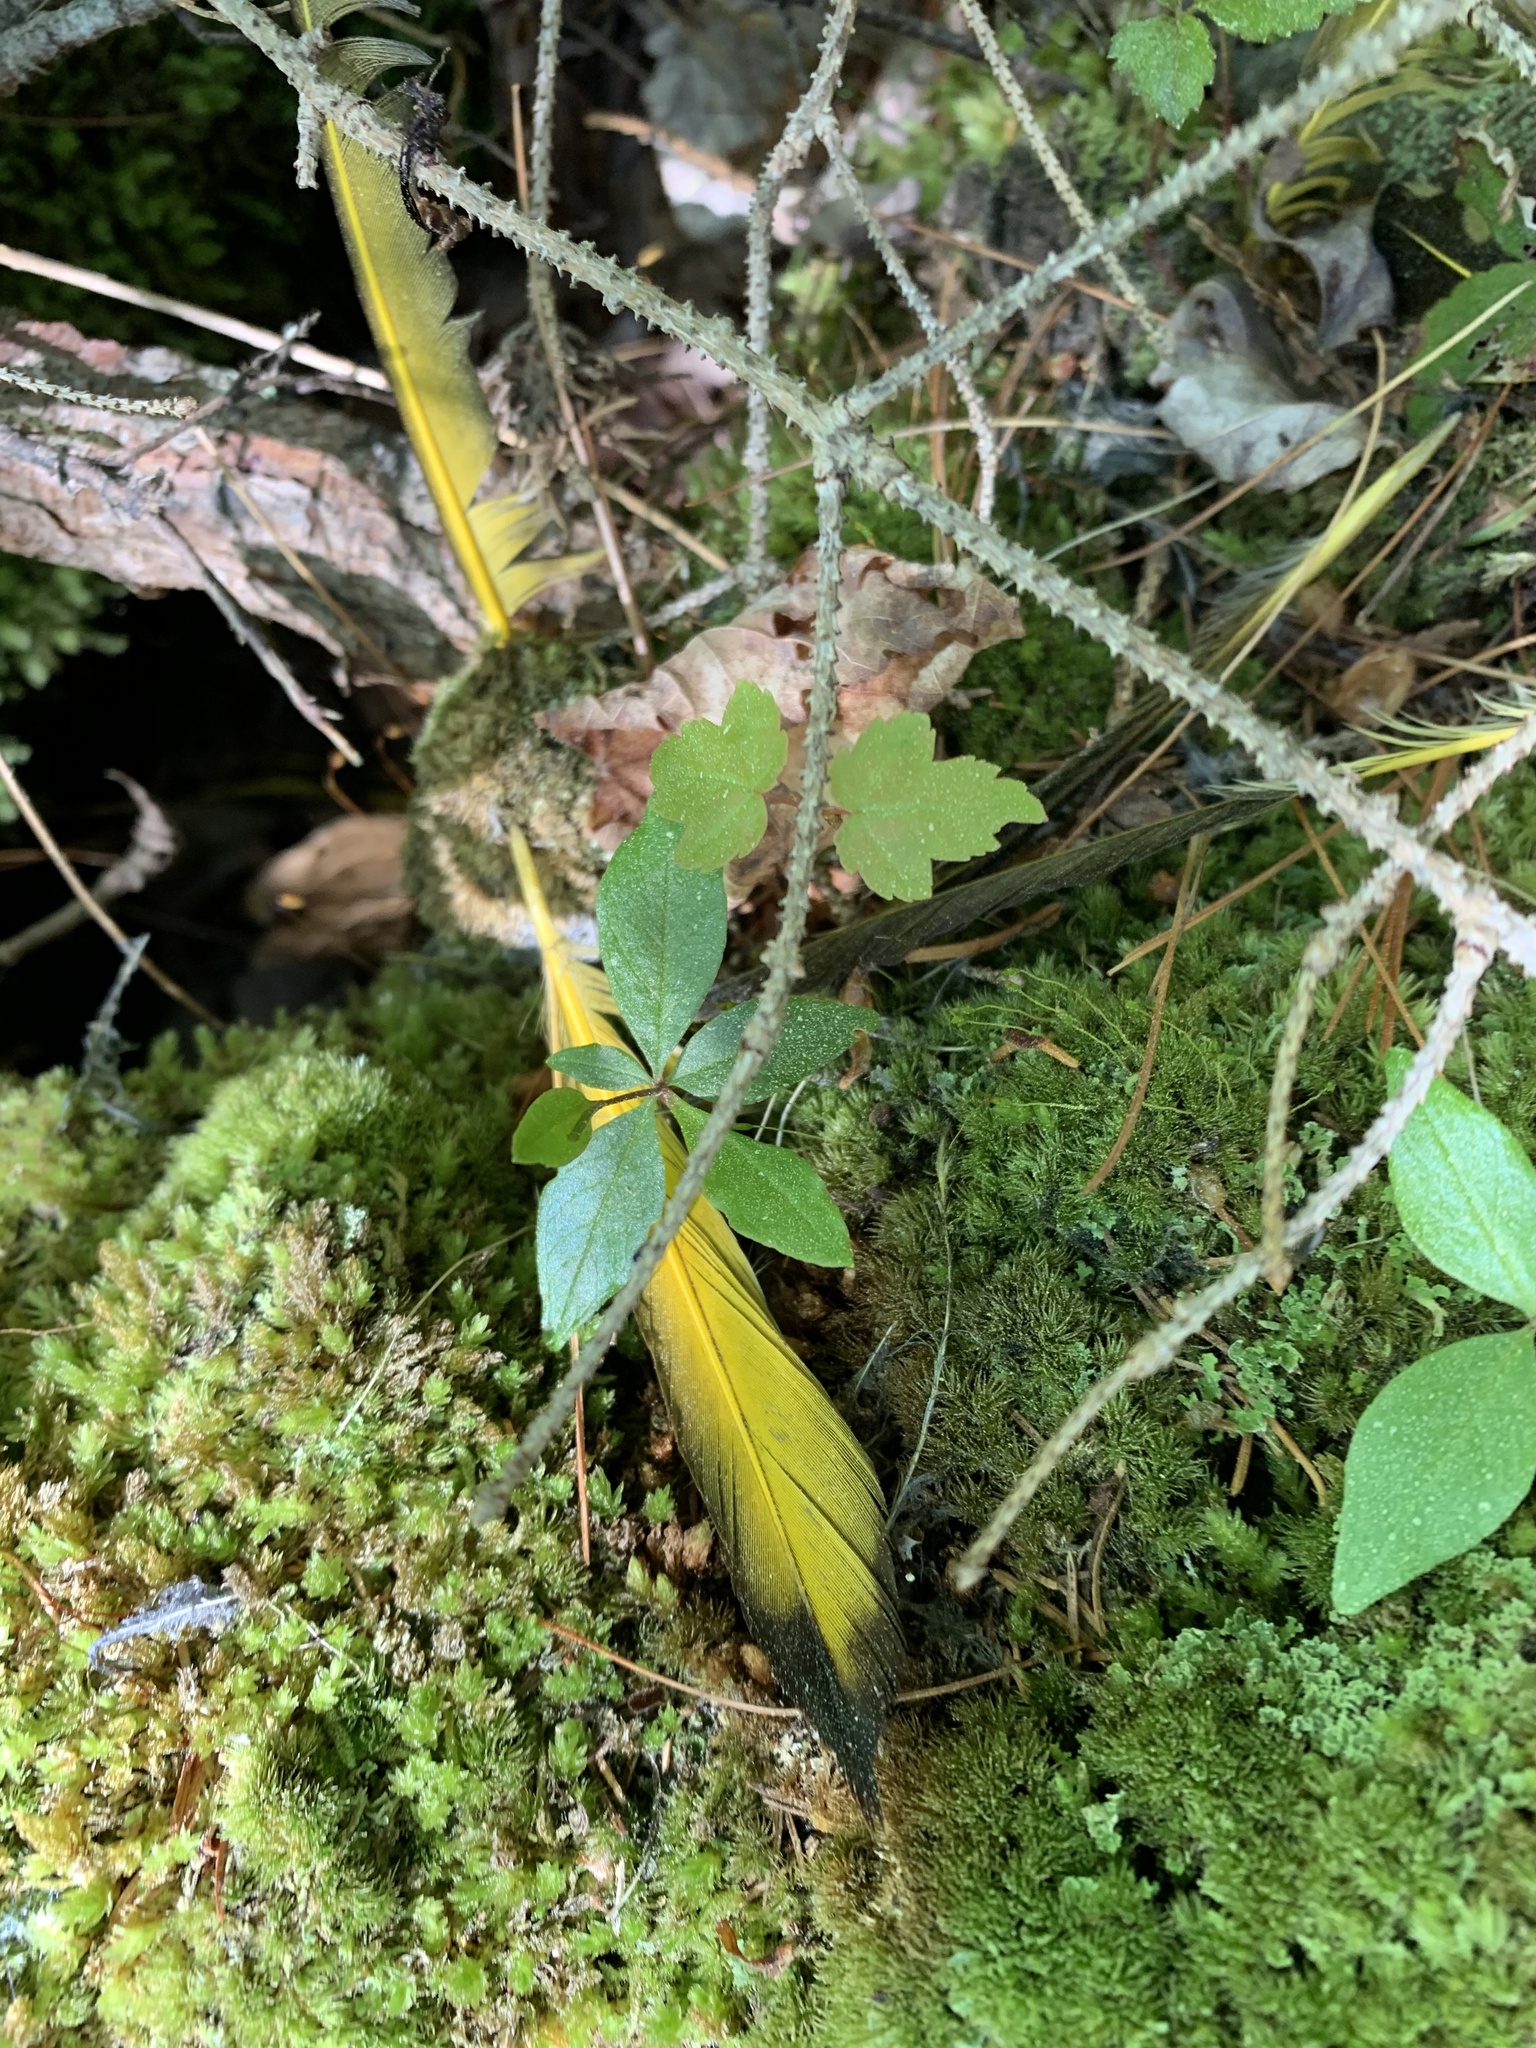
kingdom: Animalia
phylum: Chordata
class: Aves
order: Piciformes
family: Picidae
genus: Colaptes
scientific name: Colaptes auratus
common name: Northern flicker
